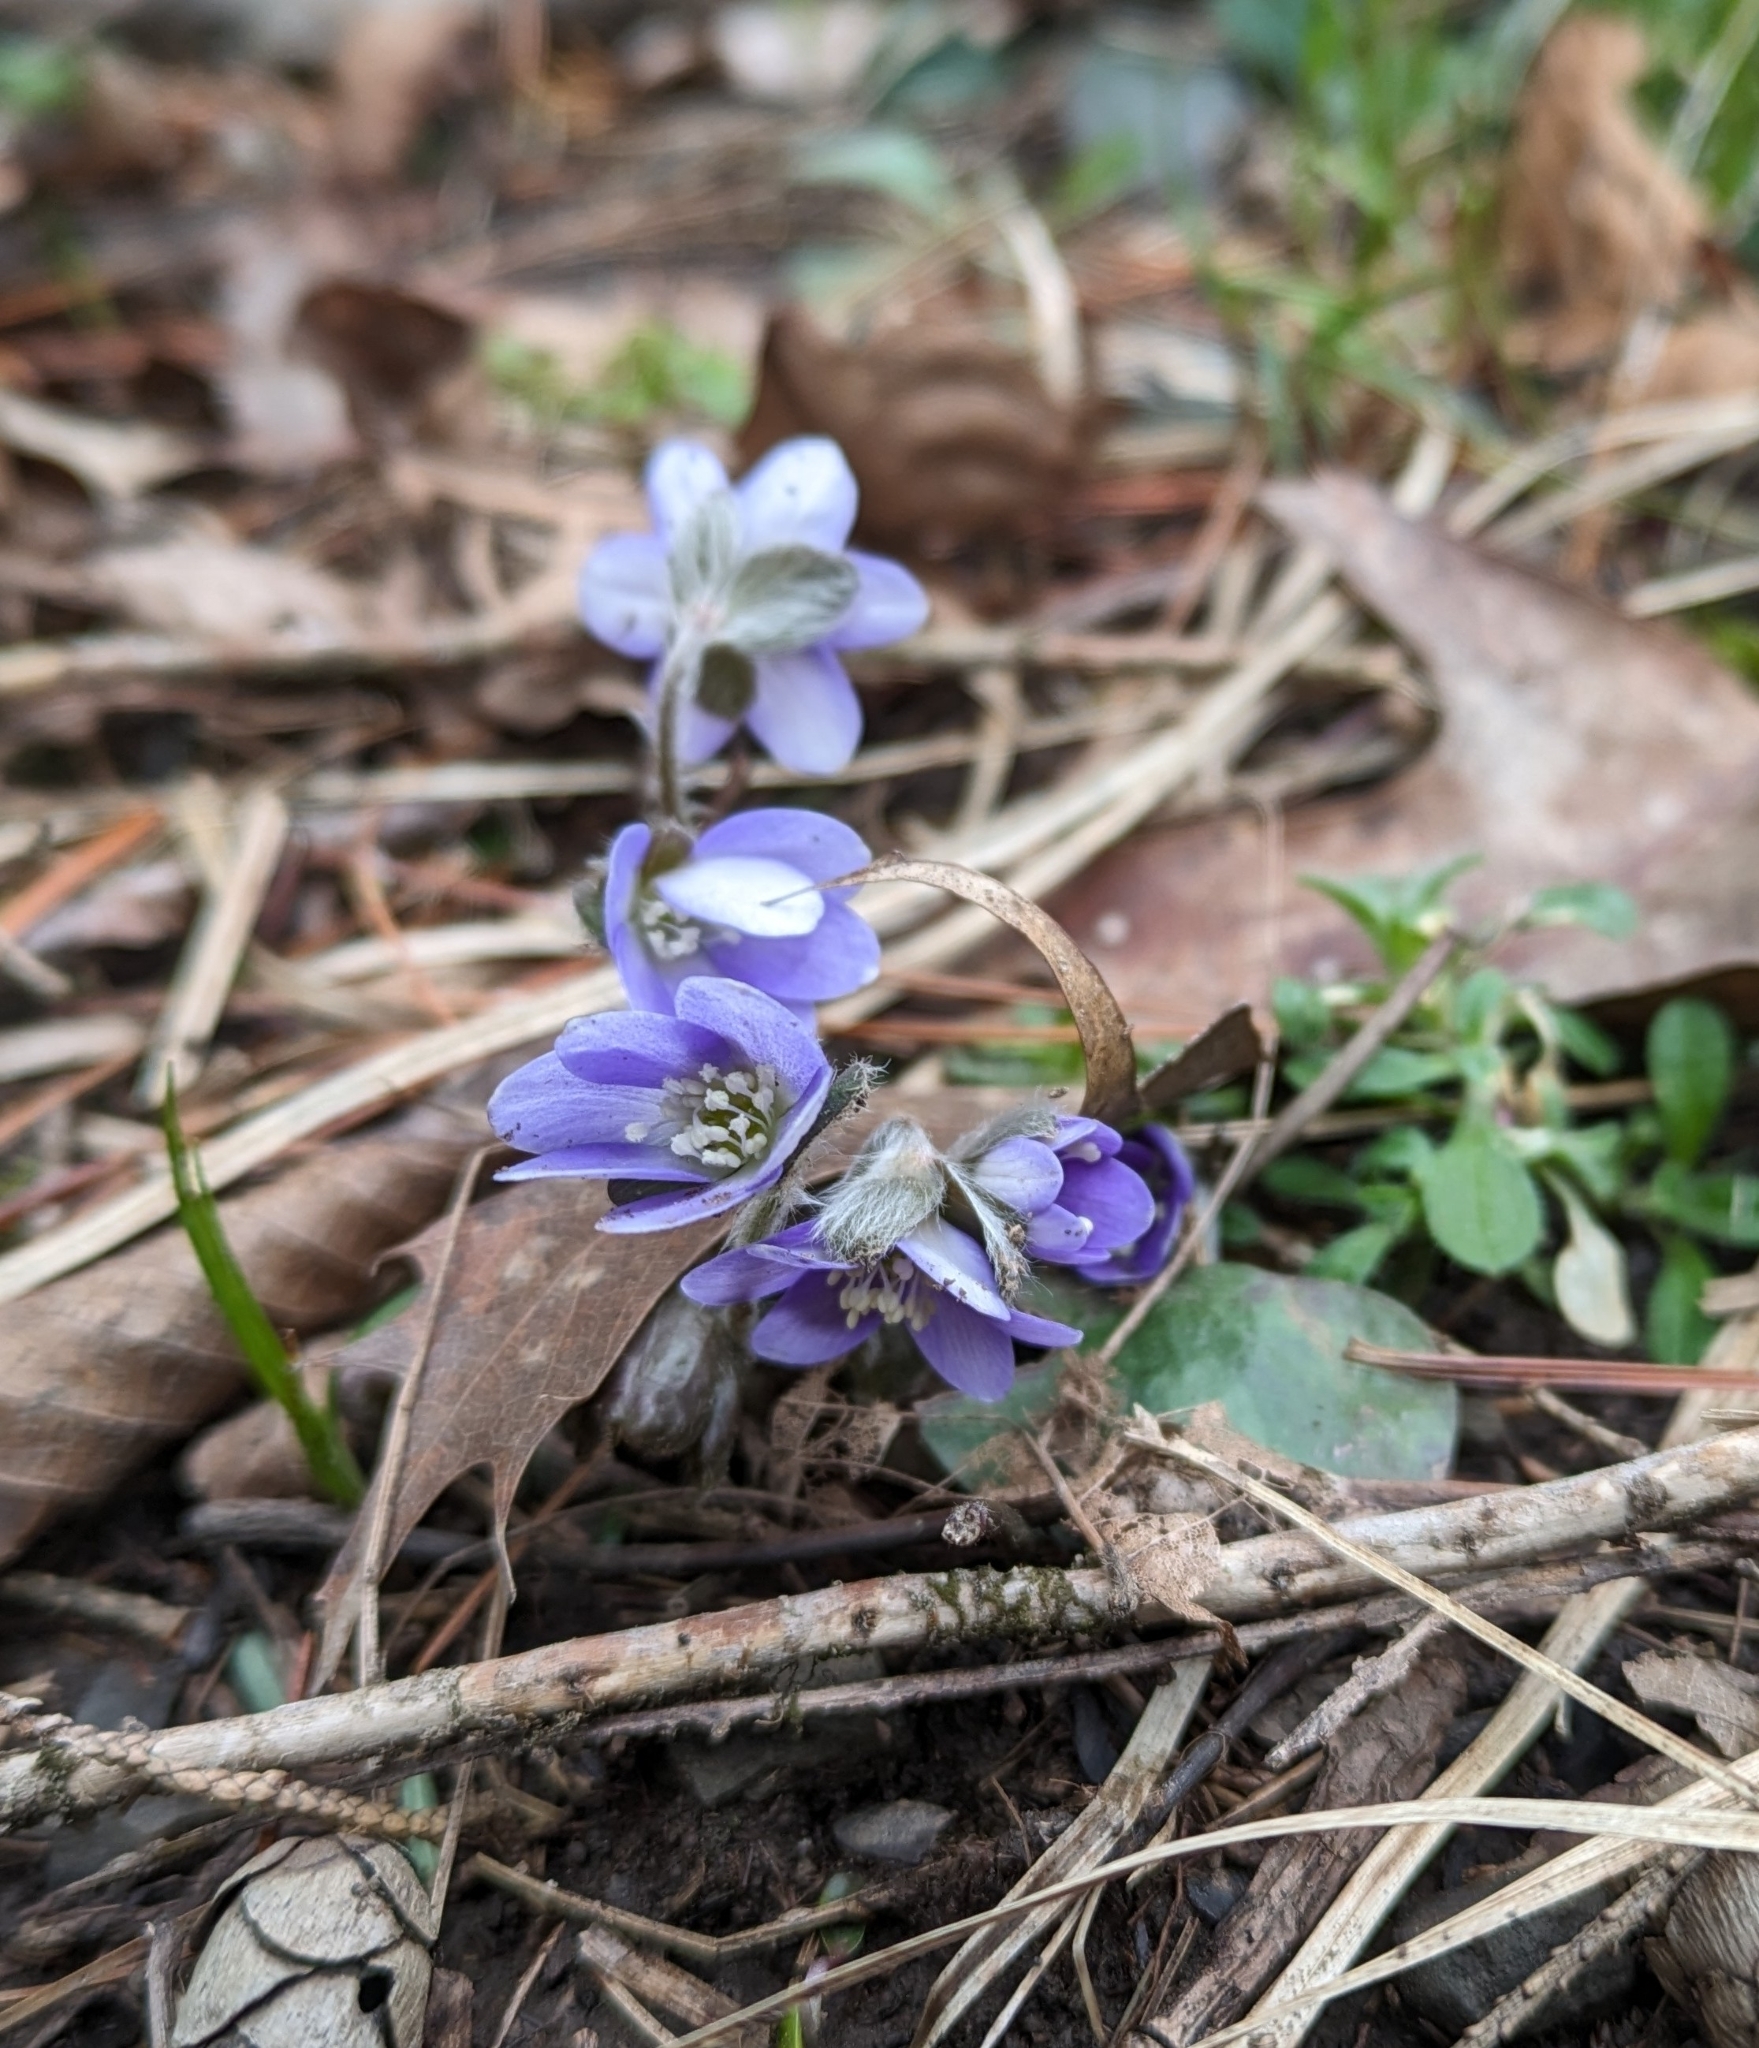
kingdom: Plantae
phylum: Tracheophyta
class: Magnoliopsida
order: Ranunculales
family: Ranunculaceae
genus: Hepatica
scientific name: Hepatica americana
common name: American hepatica
